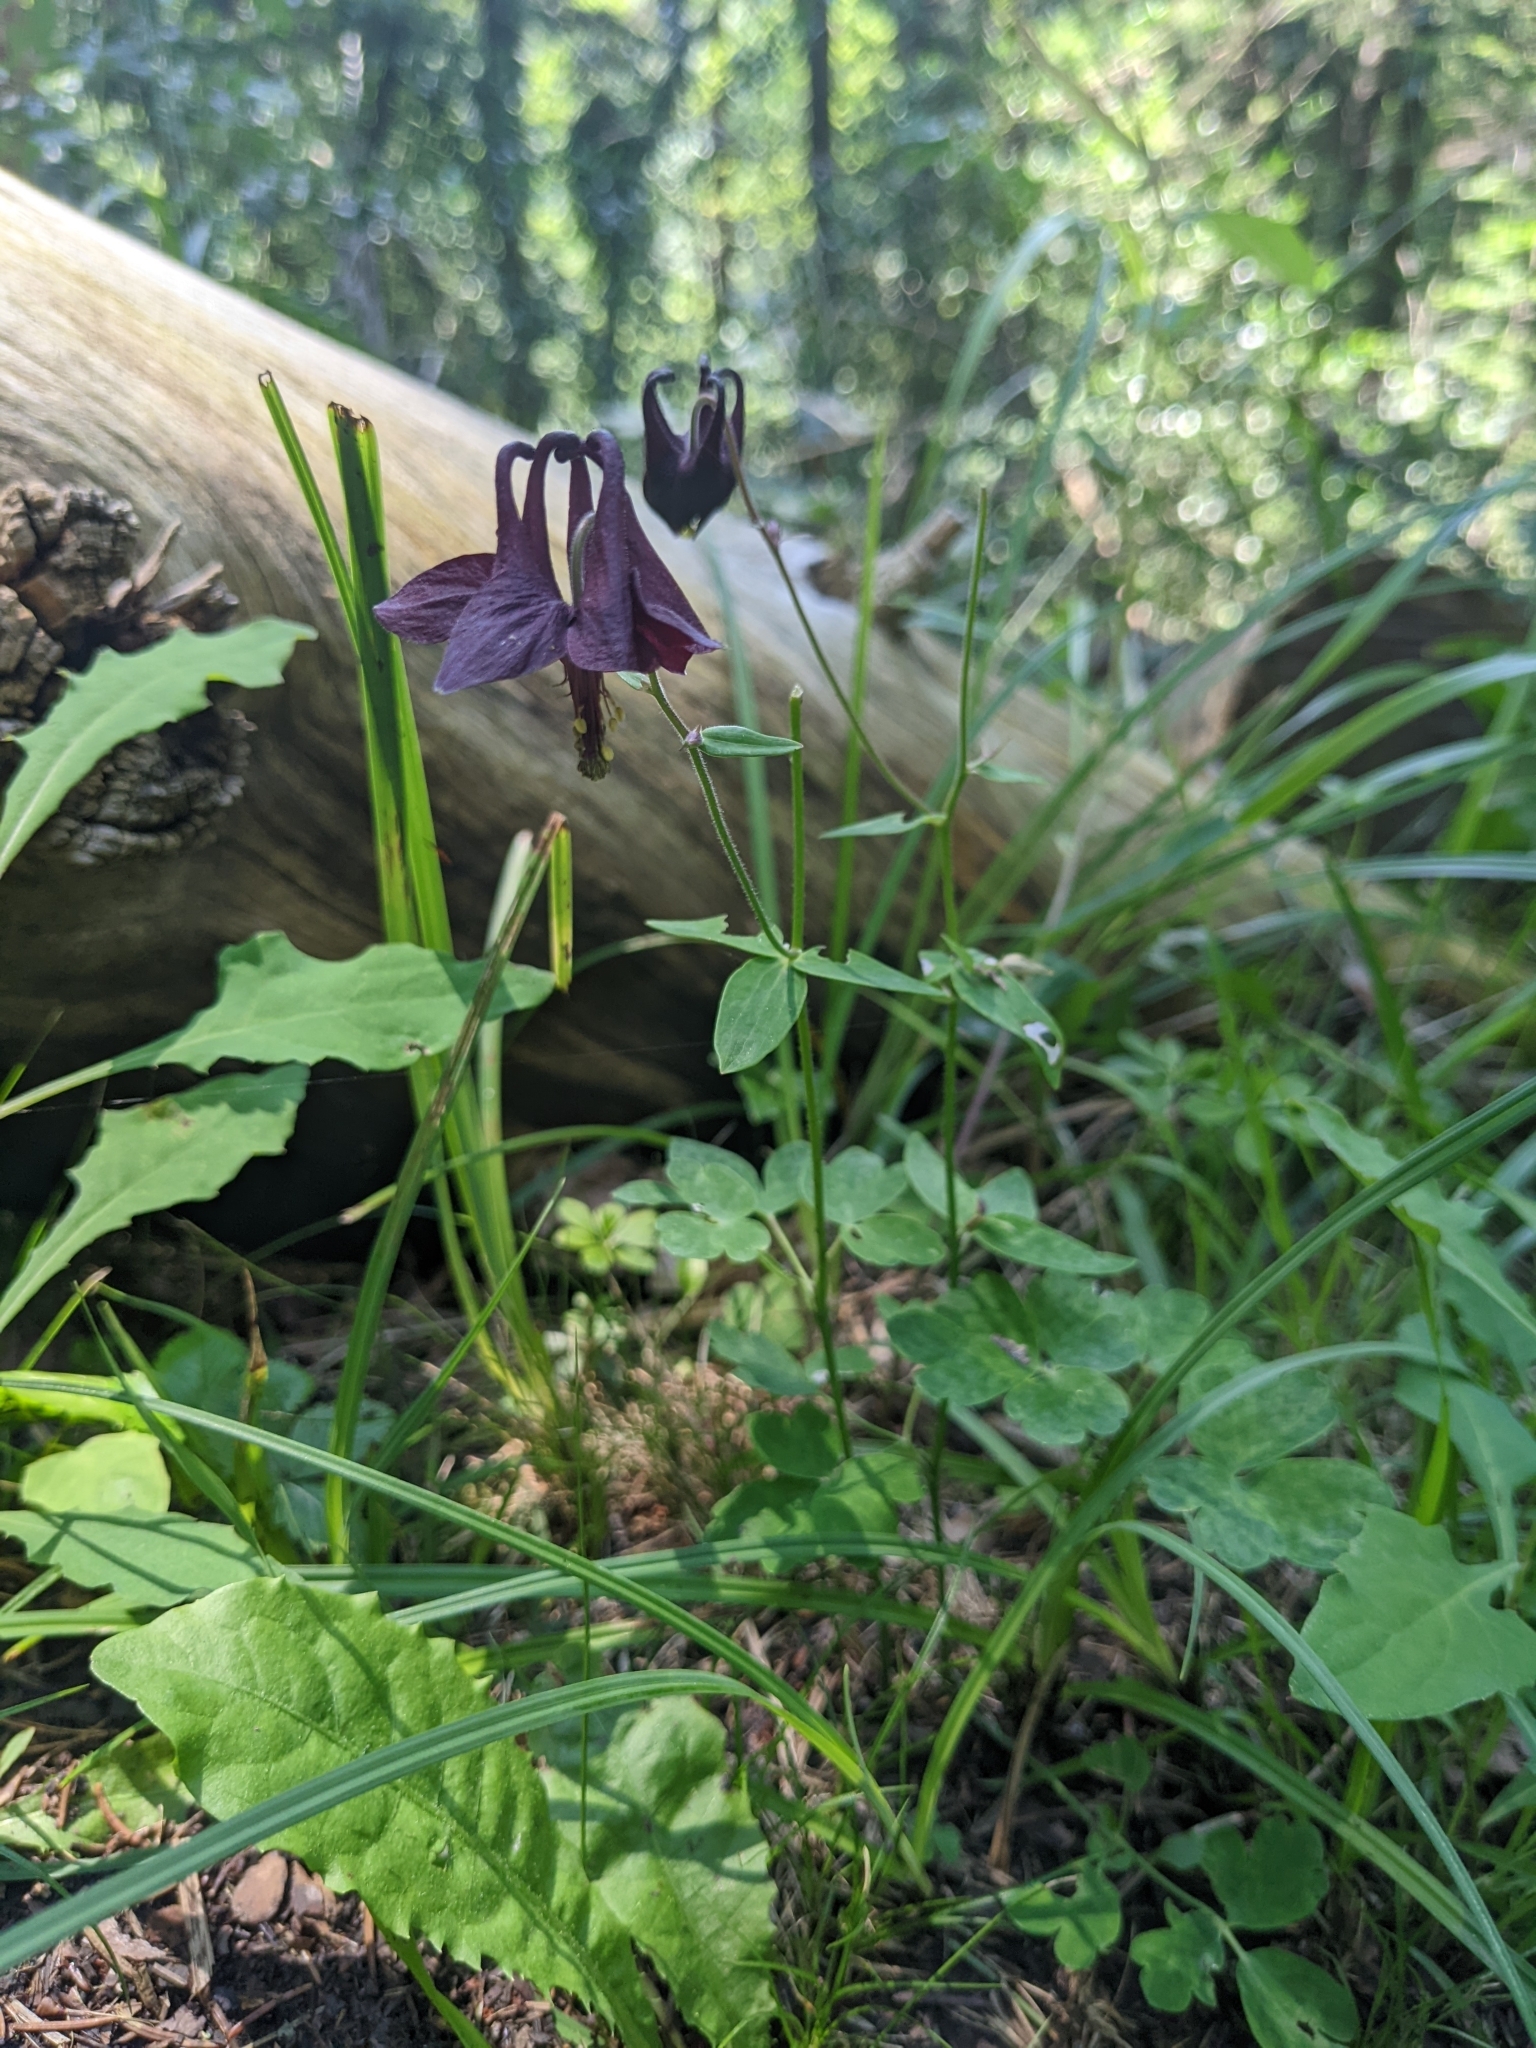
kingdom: Plantae
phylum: Tracheophyta
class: Magnoliopsida
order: Ranunculales
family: Ranunculaceae
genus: Aquilegia
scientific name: Aquilegia atrata
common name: Dark columbine
